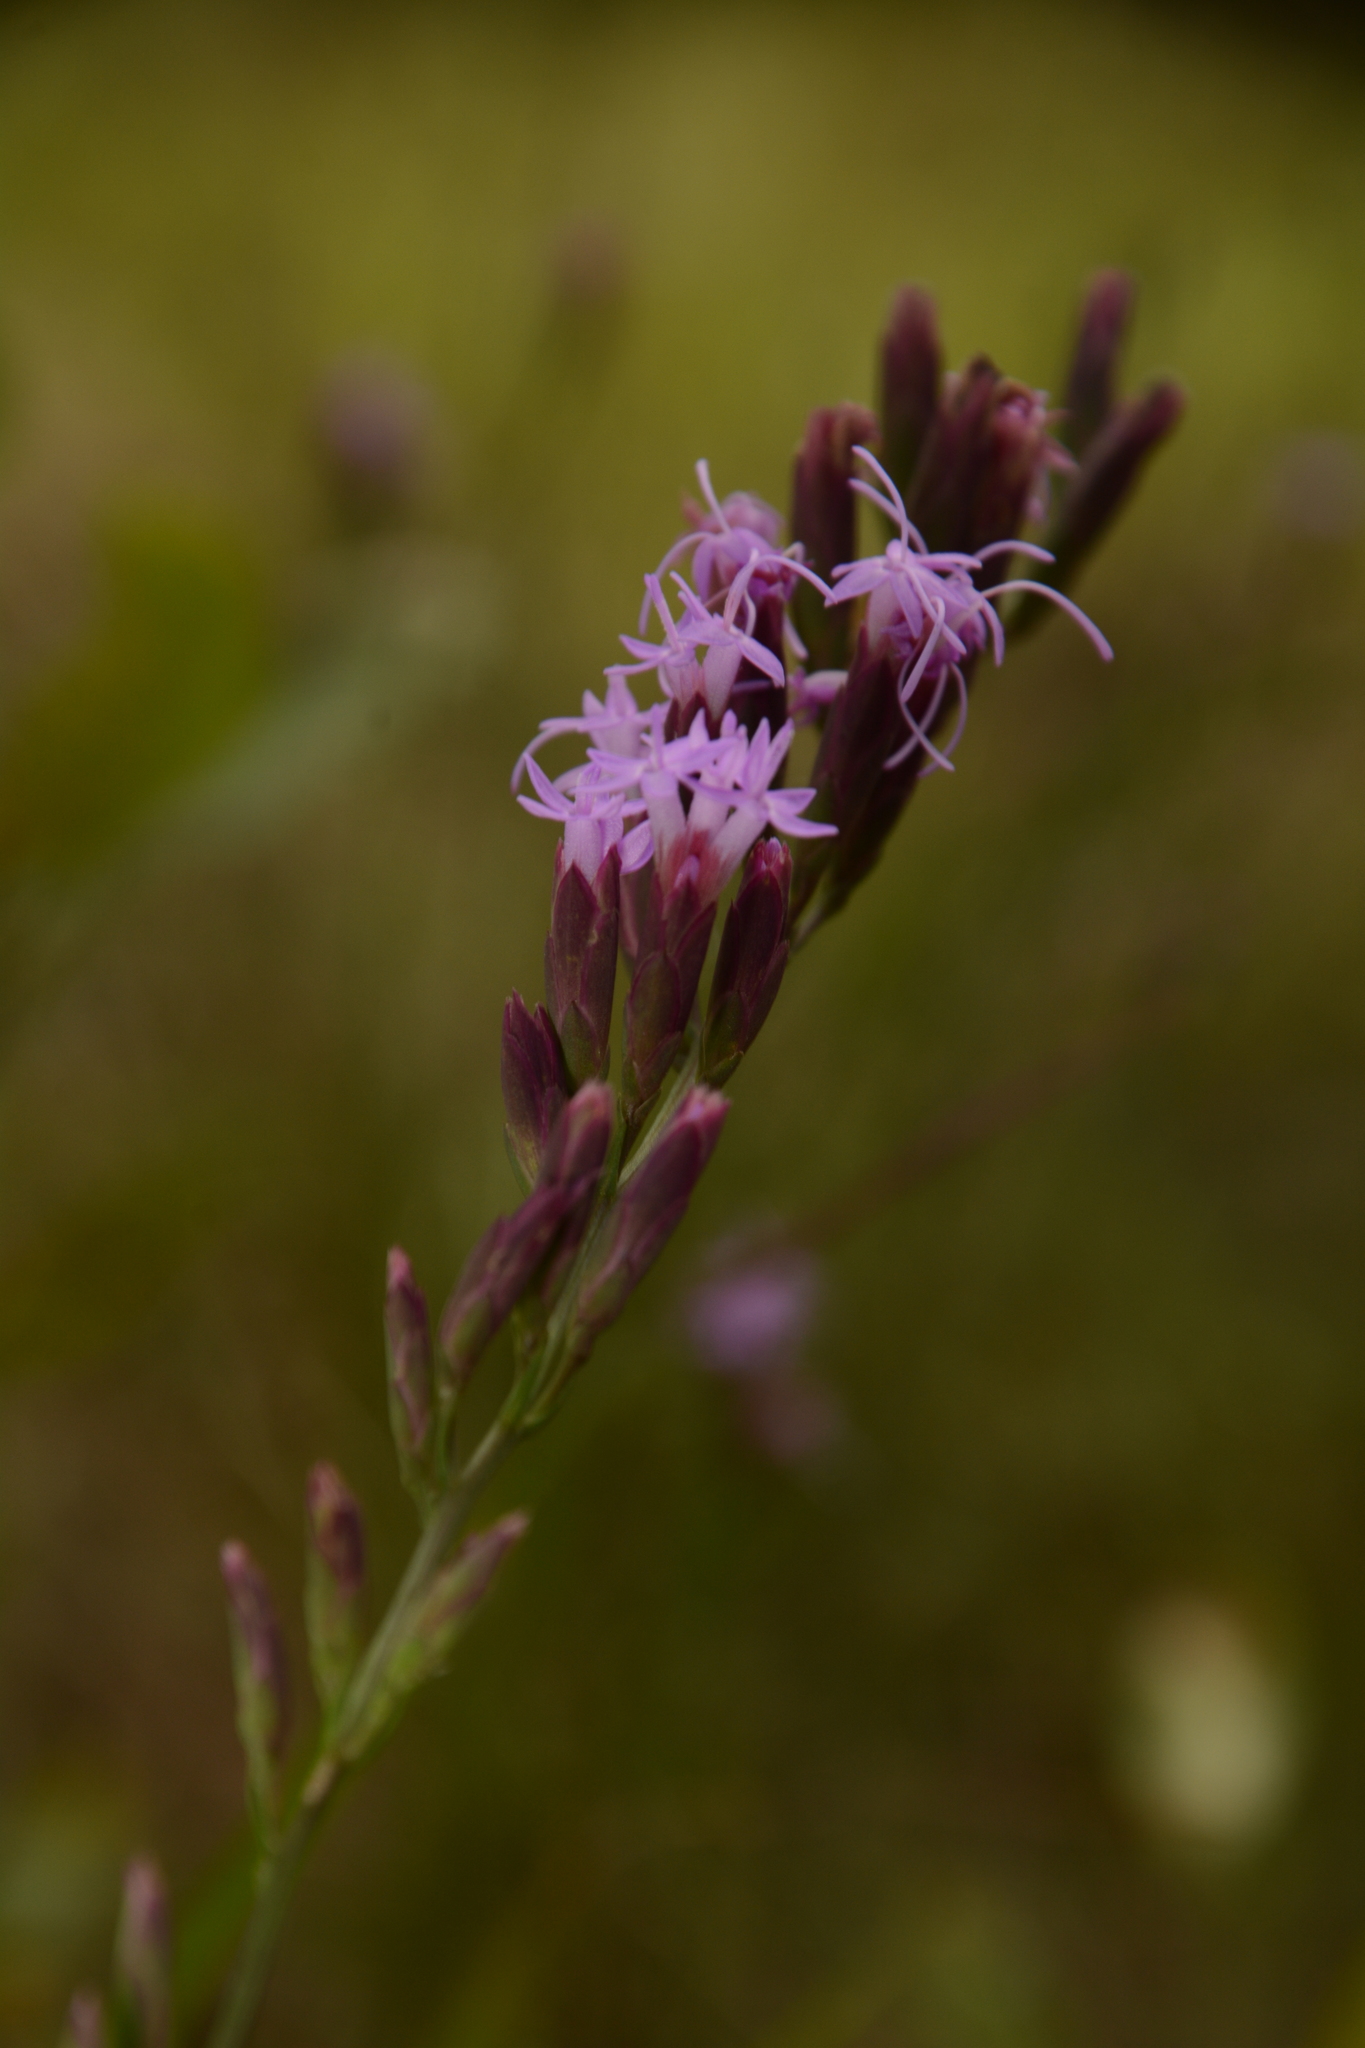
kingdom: Plantae
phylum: Tracheophyta
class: Magnoliopsida
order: Asterales
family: Asteraceae
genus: Liatris
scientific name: Liatris pauciflora
